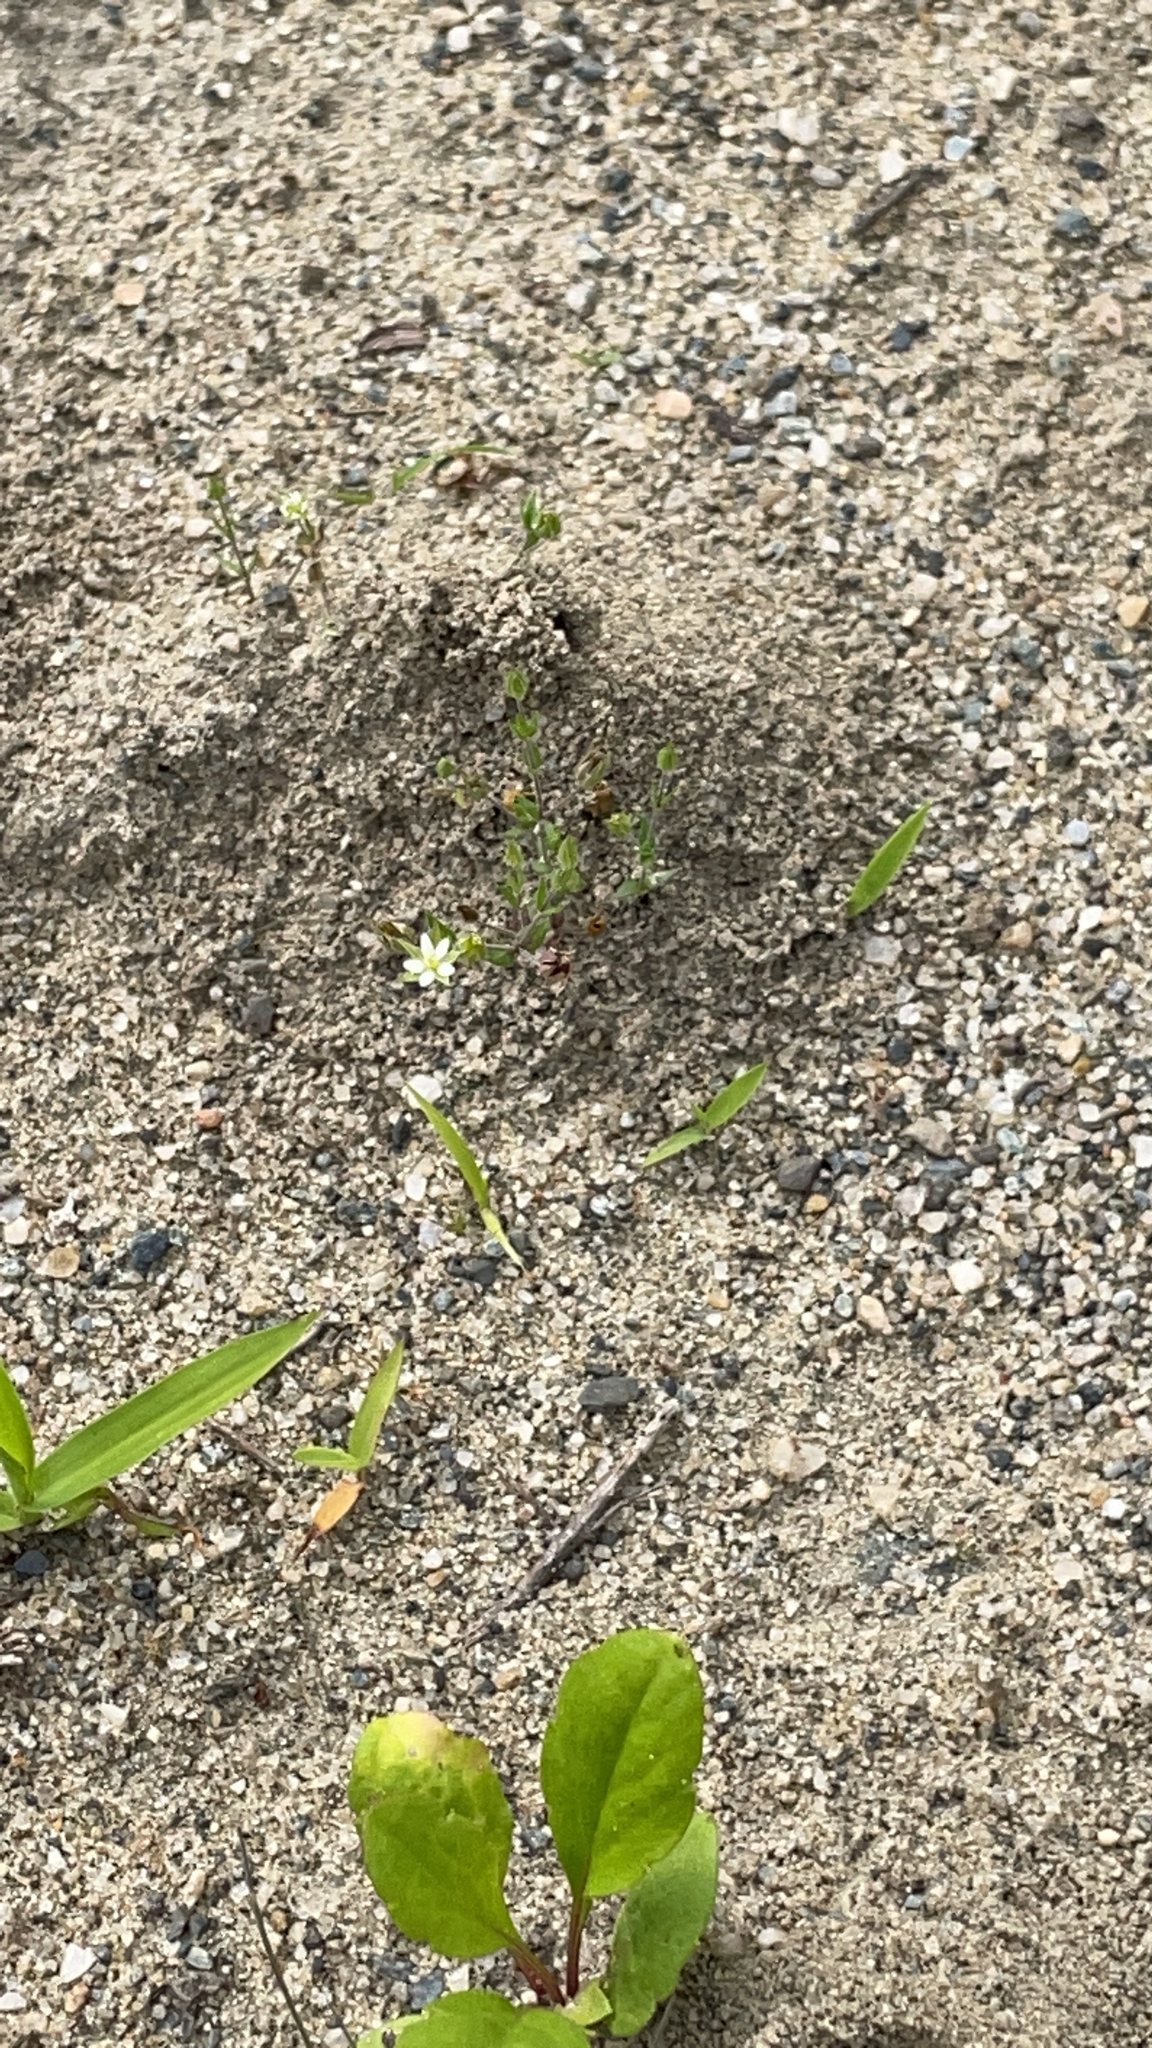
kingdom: Plantae
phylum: Tracheophyta
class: Magnoliopsida
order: Caryophyllales
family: Caryophyllaceae
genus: Arenaria
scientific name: Arenaria serpyllifolia
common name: Thyme-leaved sandwort
